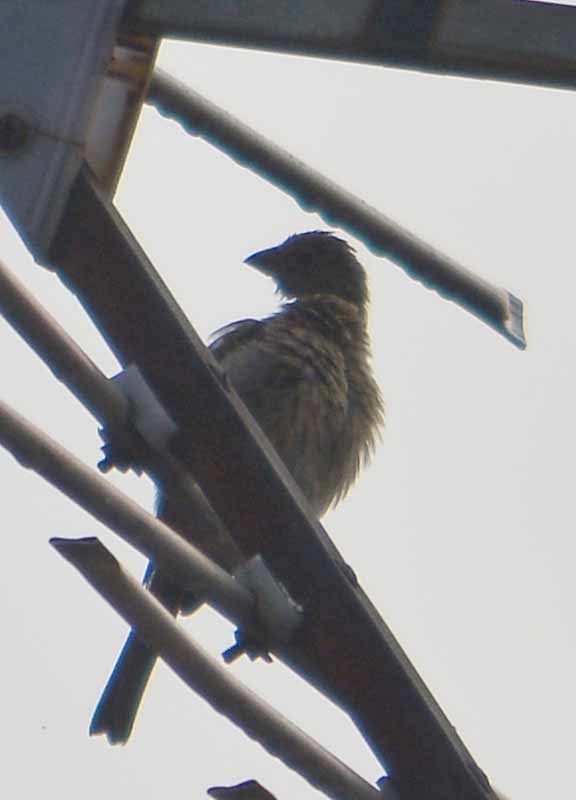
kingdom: Animalia
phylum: Chordata
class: Aves
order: Passeriformes
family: Fringillidae
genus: Haemorhous
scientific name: Haemorhous mexicanus
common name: House finch
